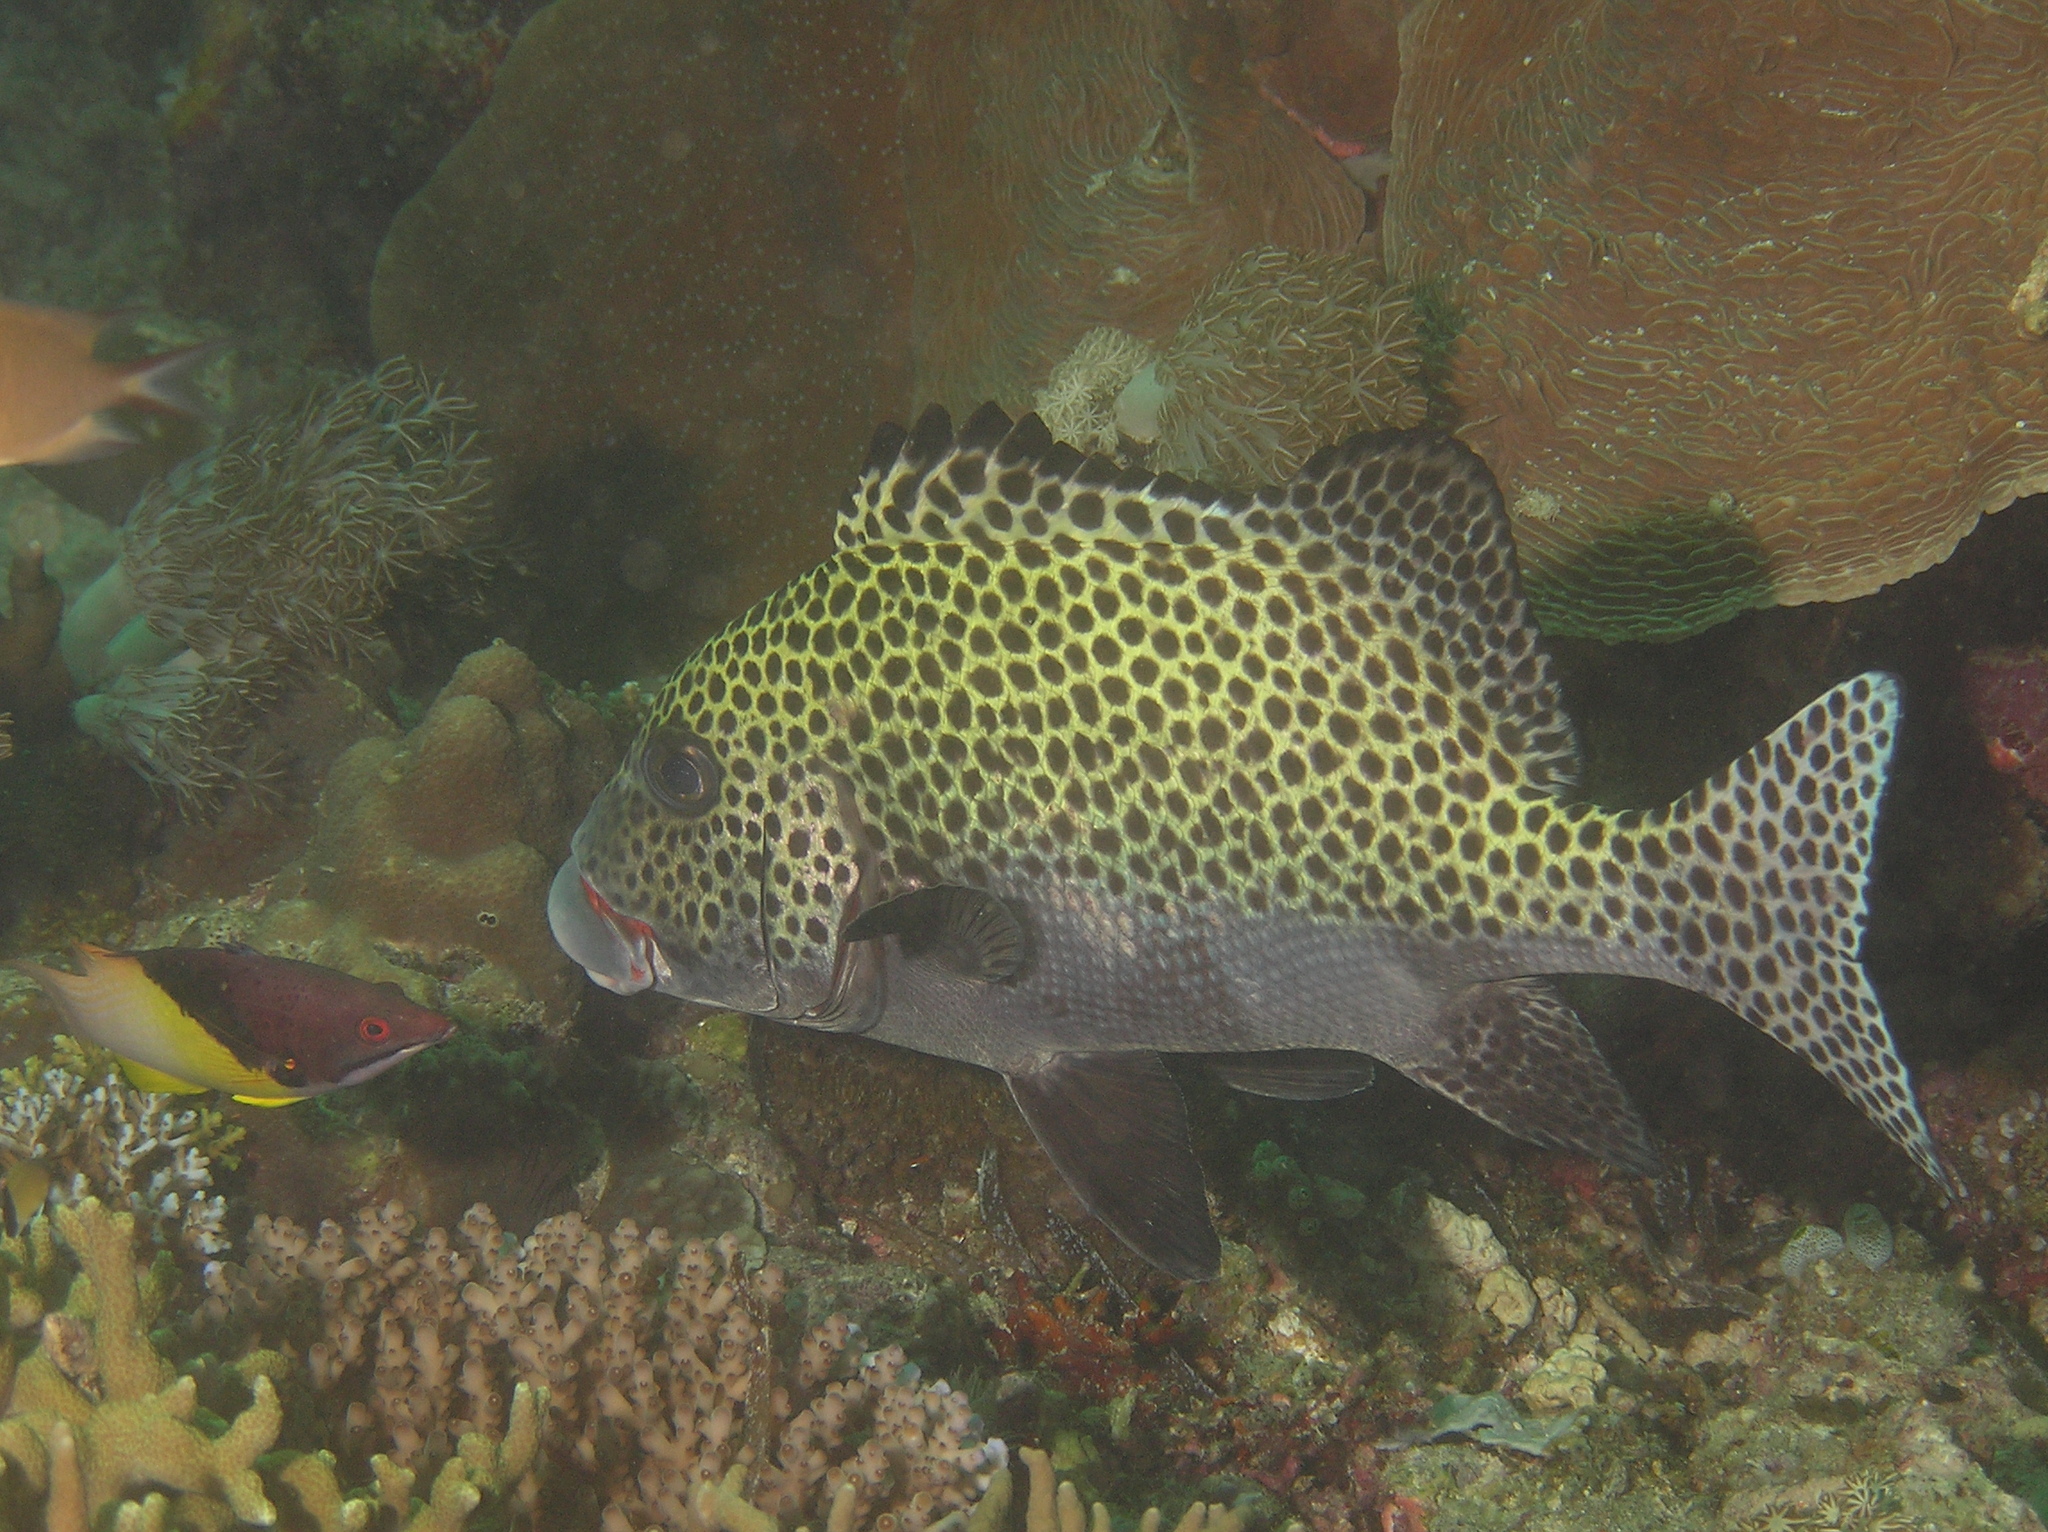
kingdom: Animalia
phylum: Chordata
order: Perciformes
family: Haemulidae
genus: Plectorhinchus
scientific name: Plectorhinchus chaetodonoides
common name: Harlequin sweetlips
